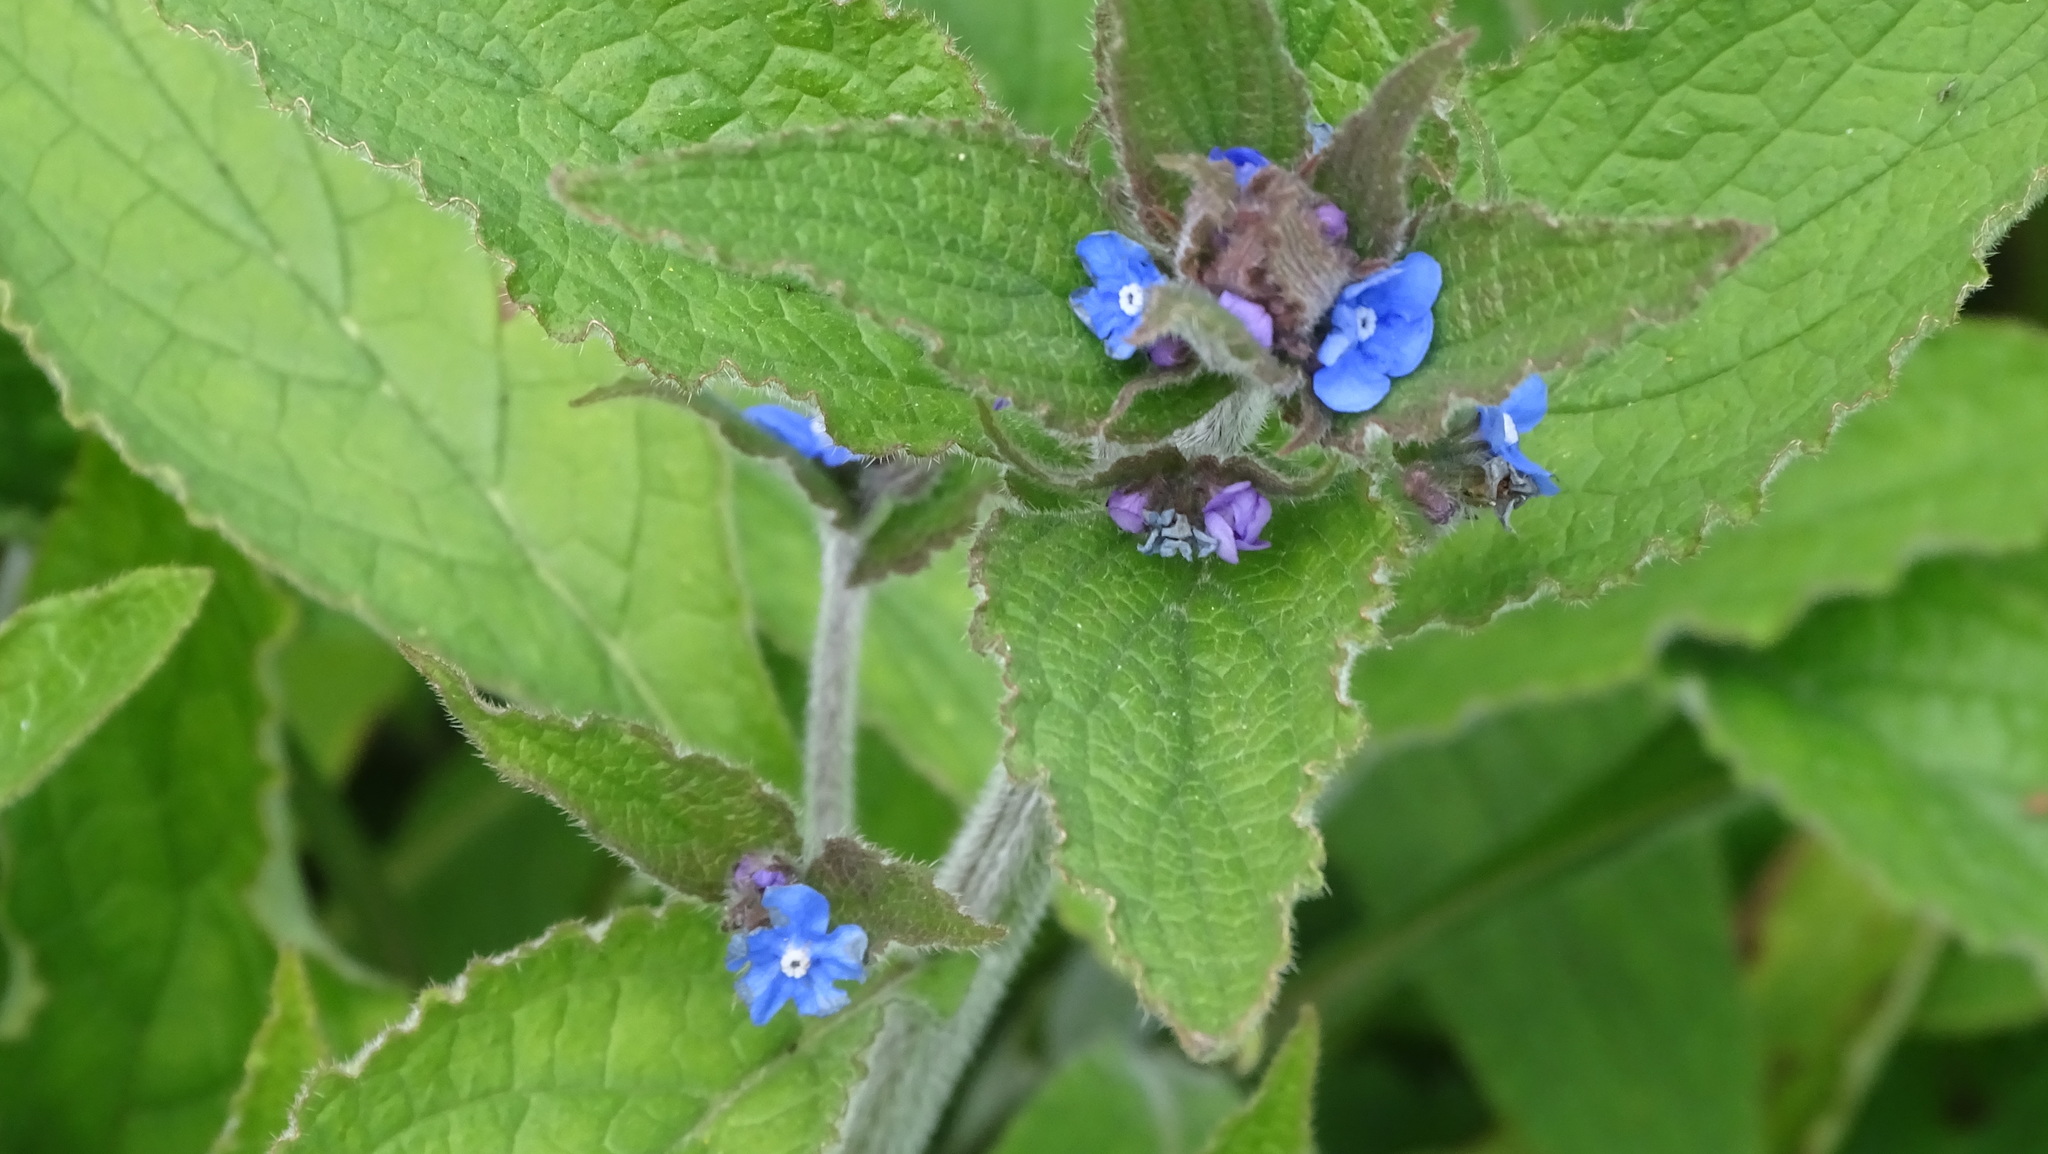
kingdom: Plantae
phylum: Tracheophyta
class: Magnoliopsida
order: Boraginales
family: Boraginaceae
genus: Pentaglottis
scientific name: Pentaglottis sempervirens
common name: Green alkanet
